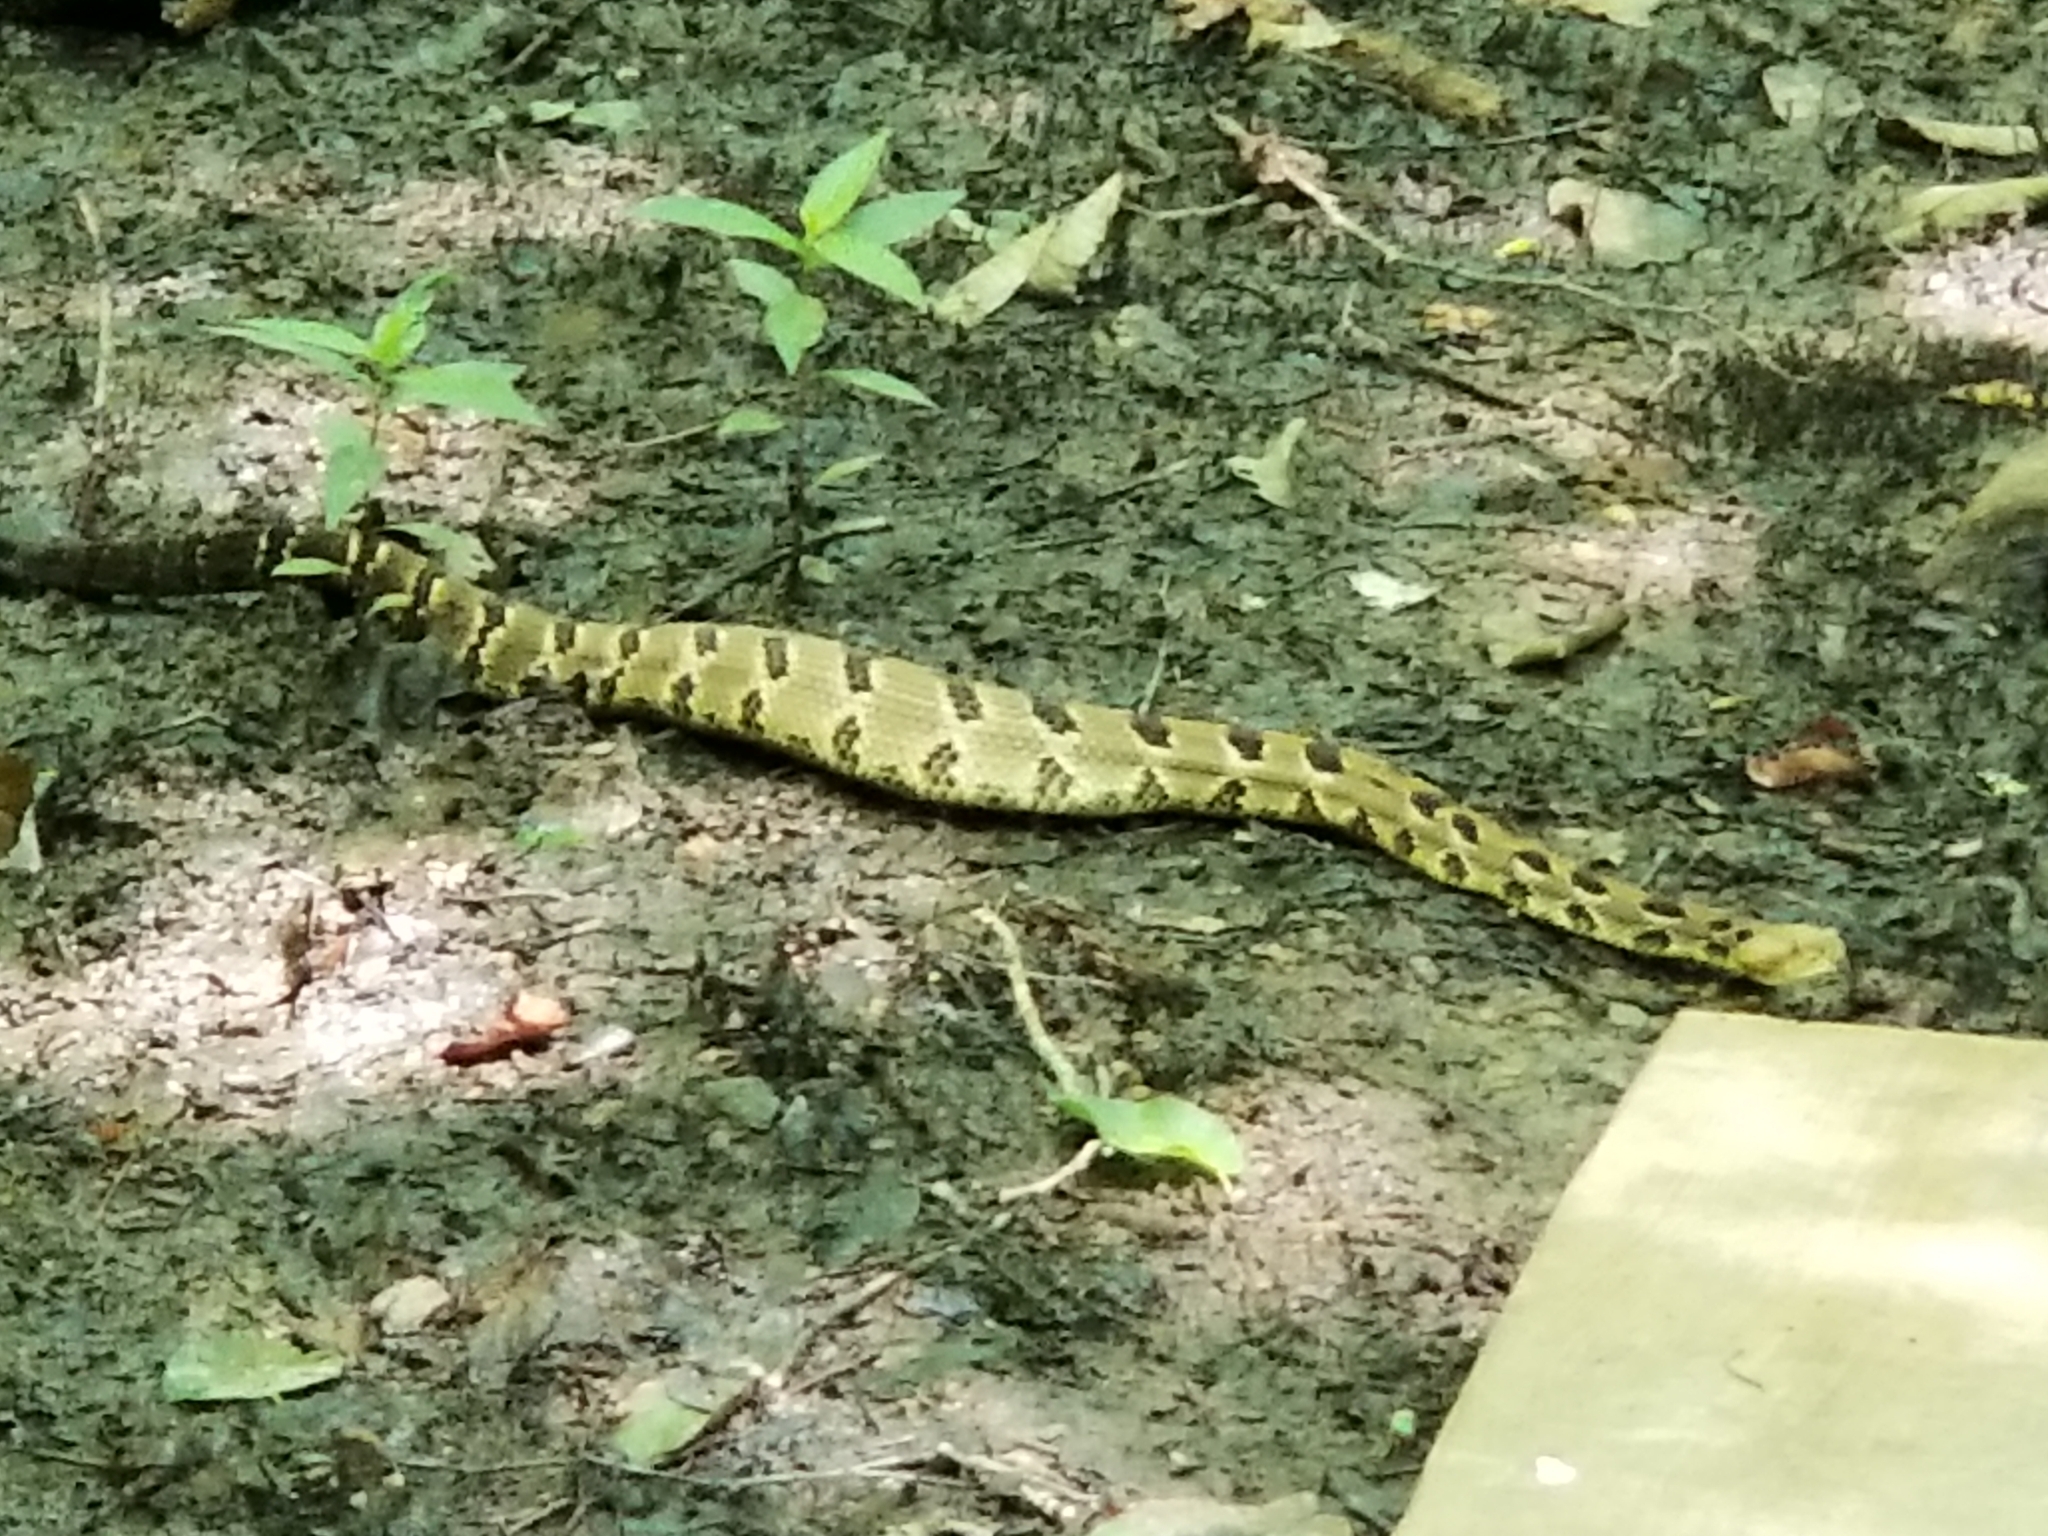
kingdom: Animalia
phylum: Chordata
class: Squamata
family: Viperidae
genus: Crotalus
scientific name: Crotalus horridus
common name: Timber rattlesnake
